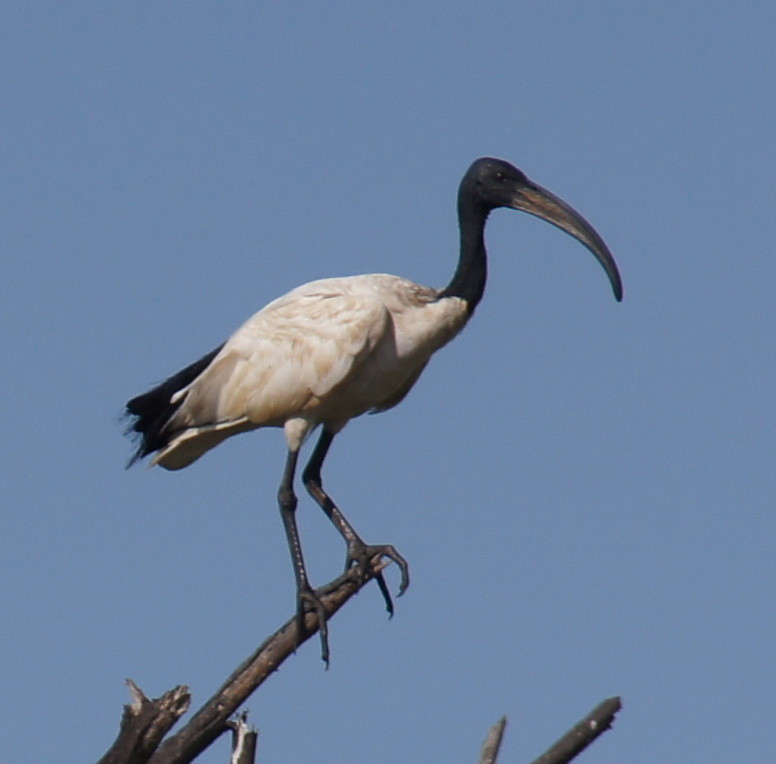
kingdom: Animalia
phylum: Chordata
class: Aves
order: Pelecaniformes
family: Threskiornithidae
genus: Threskiornis
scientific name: Threskiornis aethiopicus
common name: Sacred ibis
